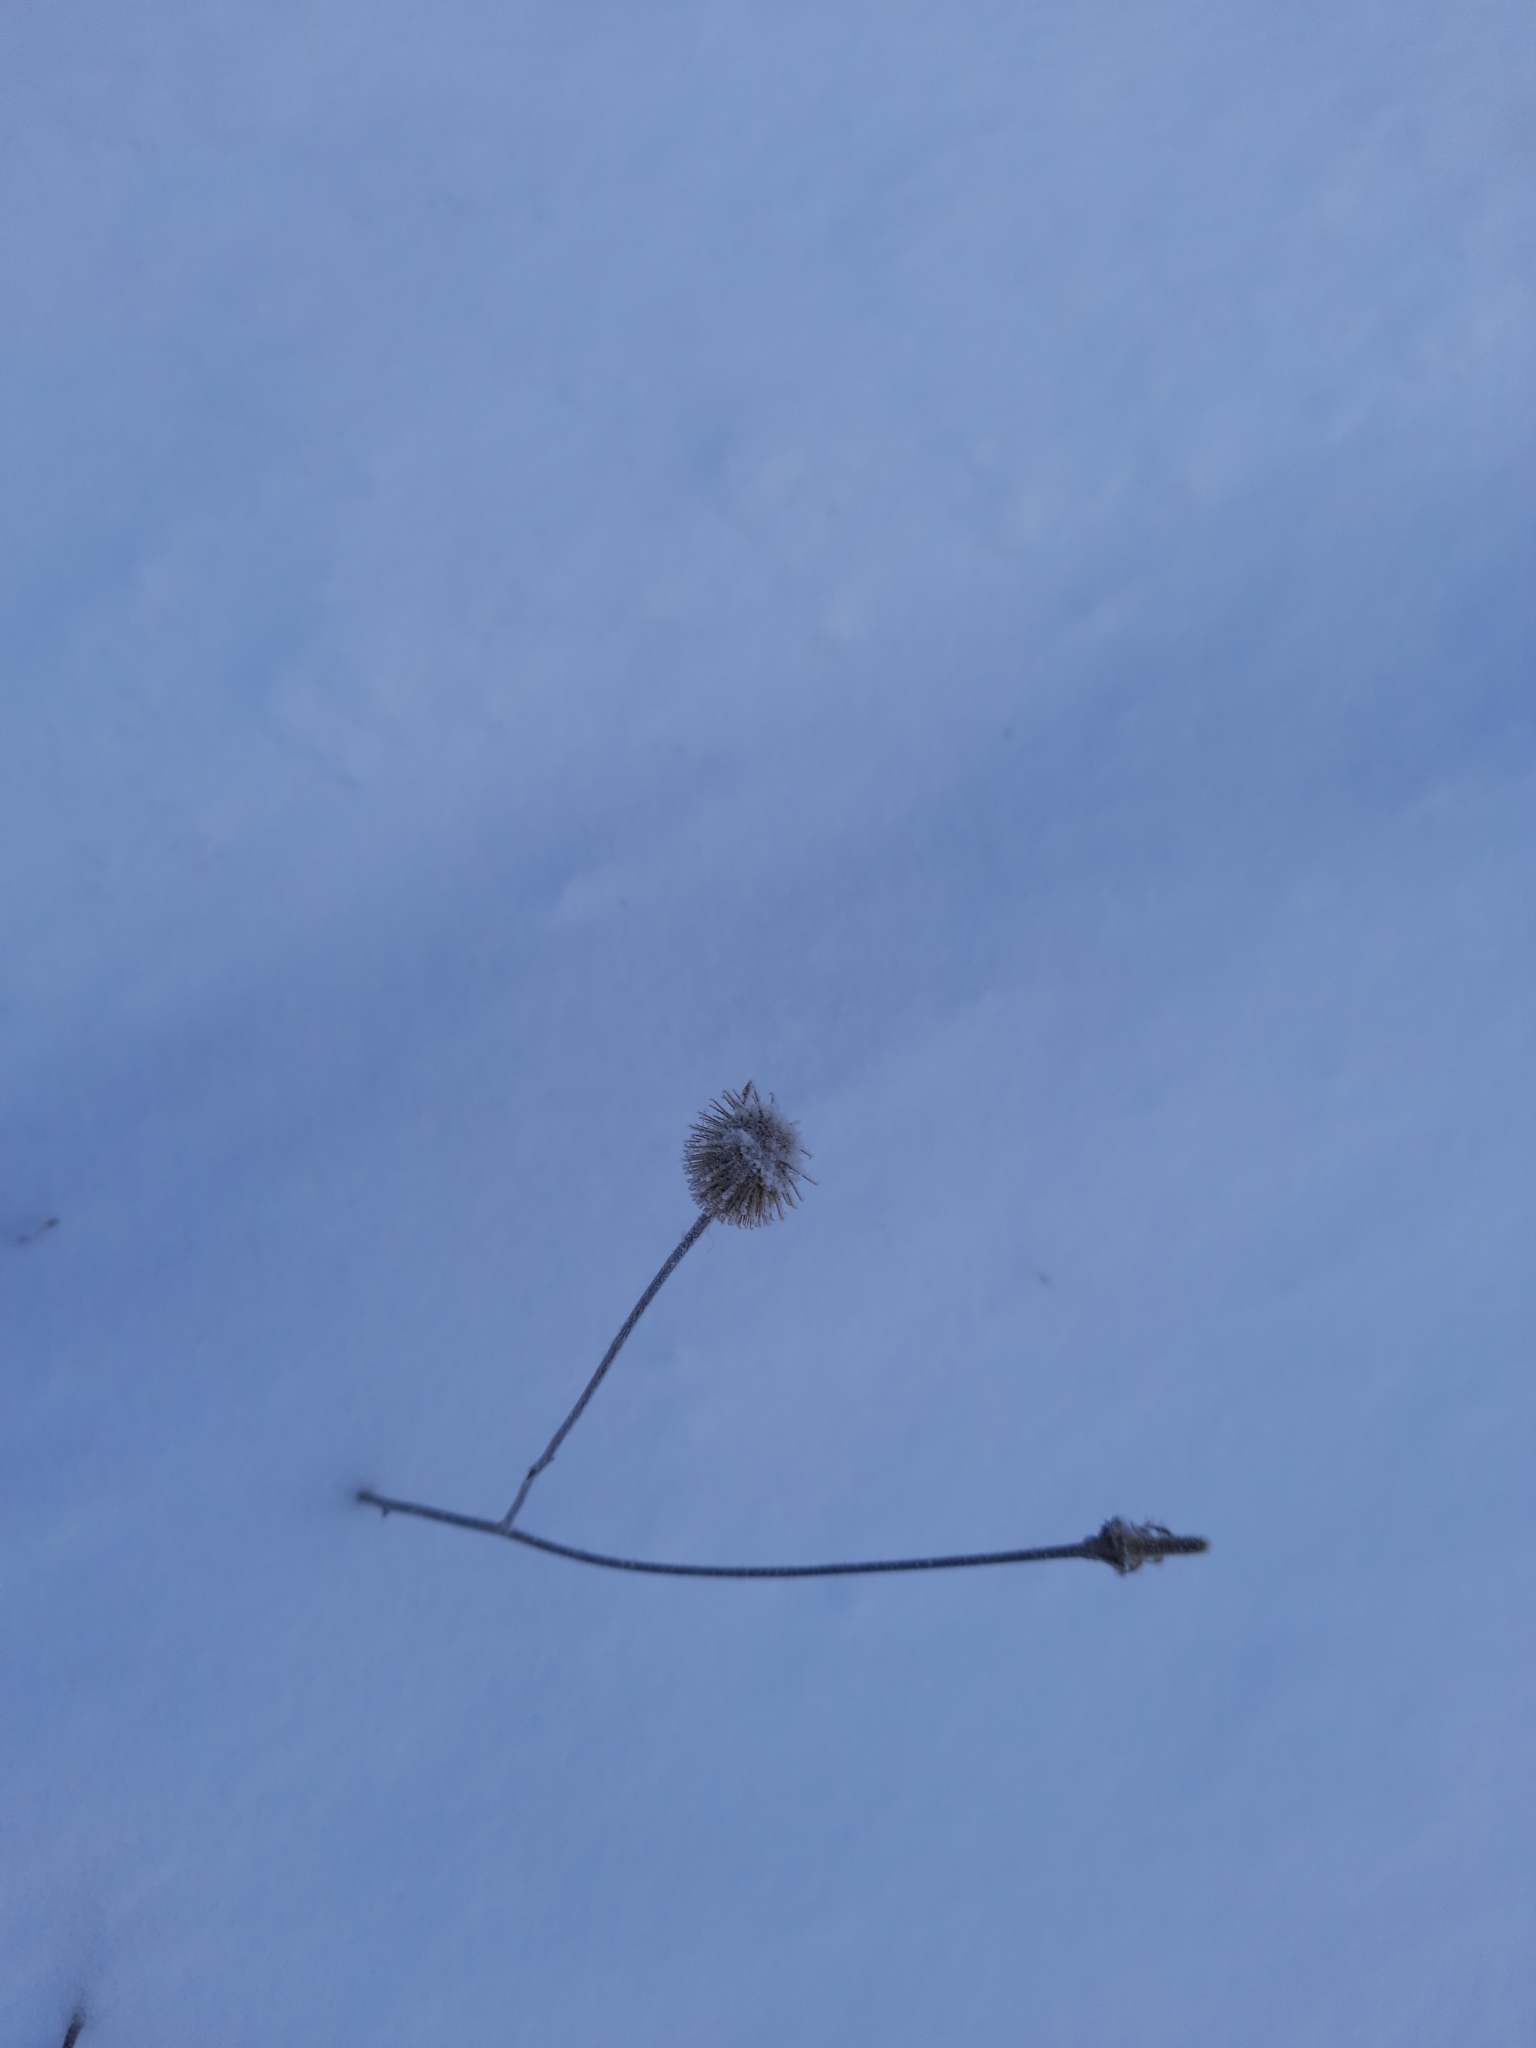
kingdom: Plantae
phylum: Tracheophyta
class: Magnoliopsida
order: Rosales
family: Rosaceae
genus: Geum
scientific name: Geum aleppicum
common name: Yellow avens
